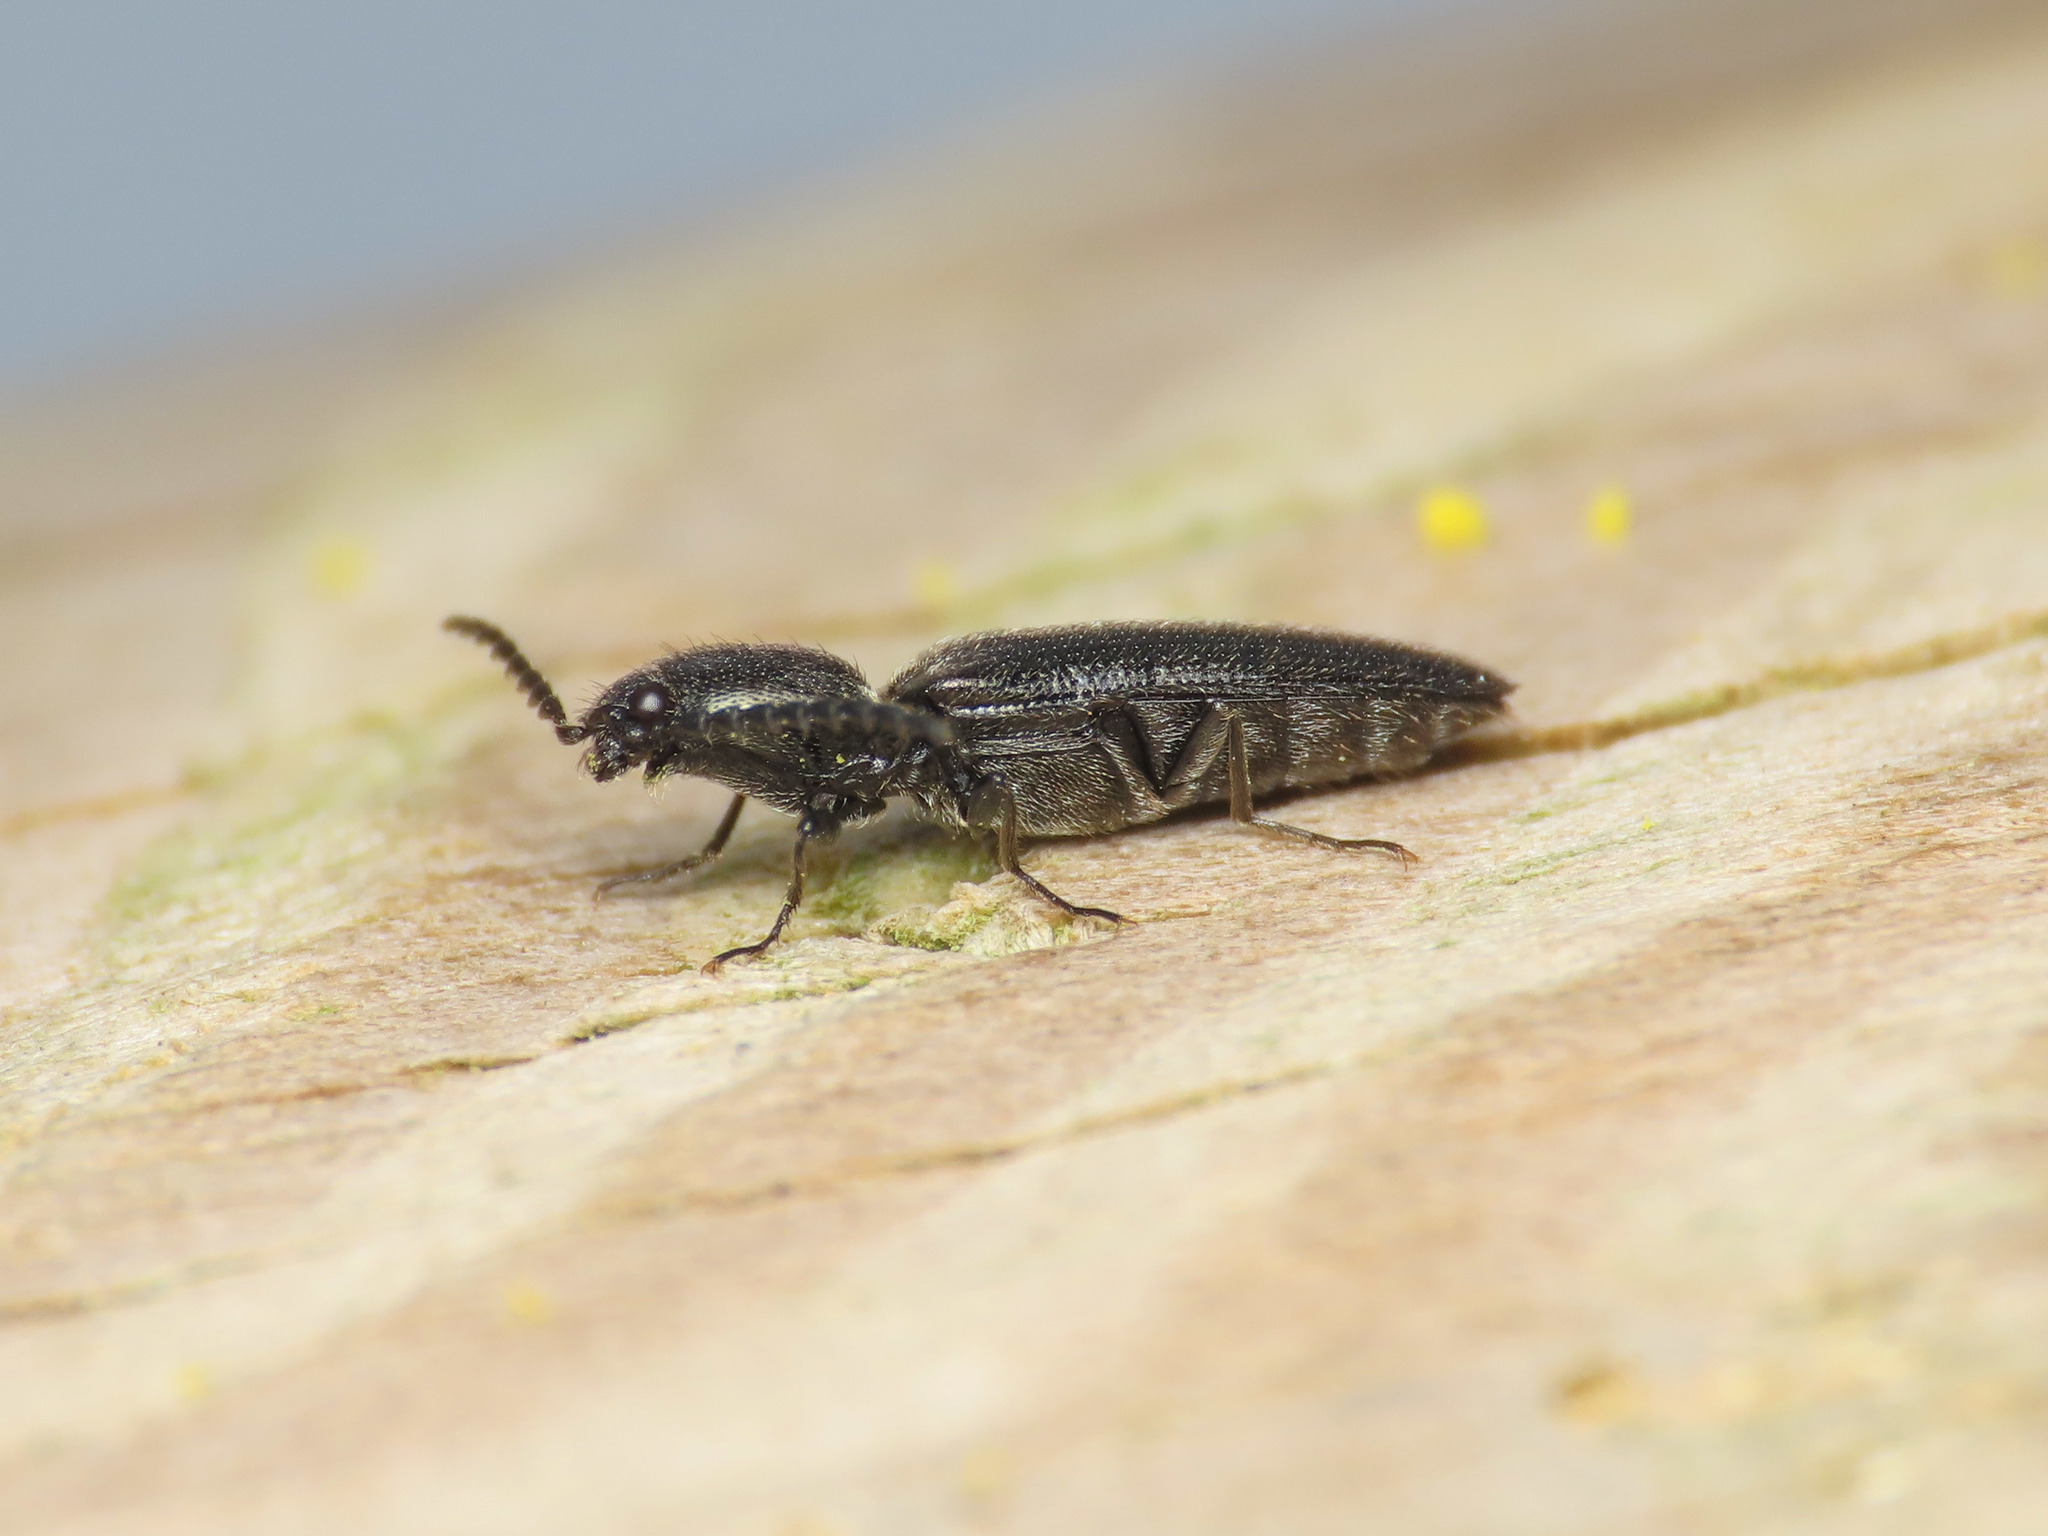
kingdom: Animalia
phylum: Arthropoda
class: Insecta
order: Coleoptera
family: Elateridae
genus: Limonius
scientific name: Limonius minutus
